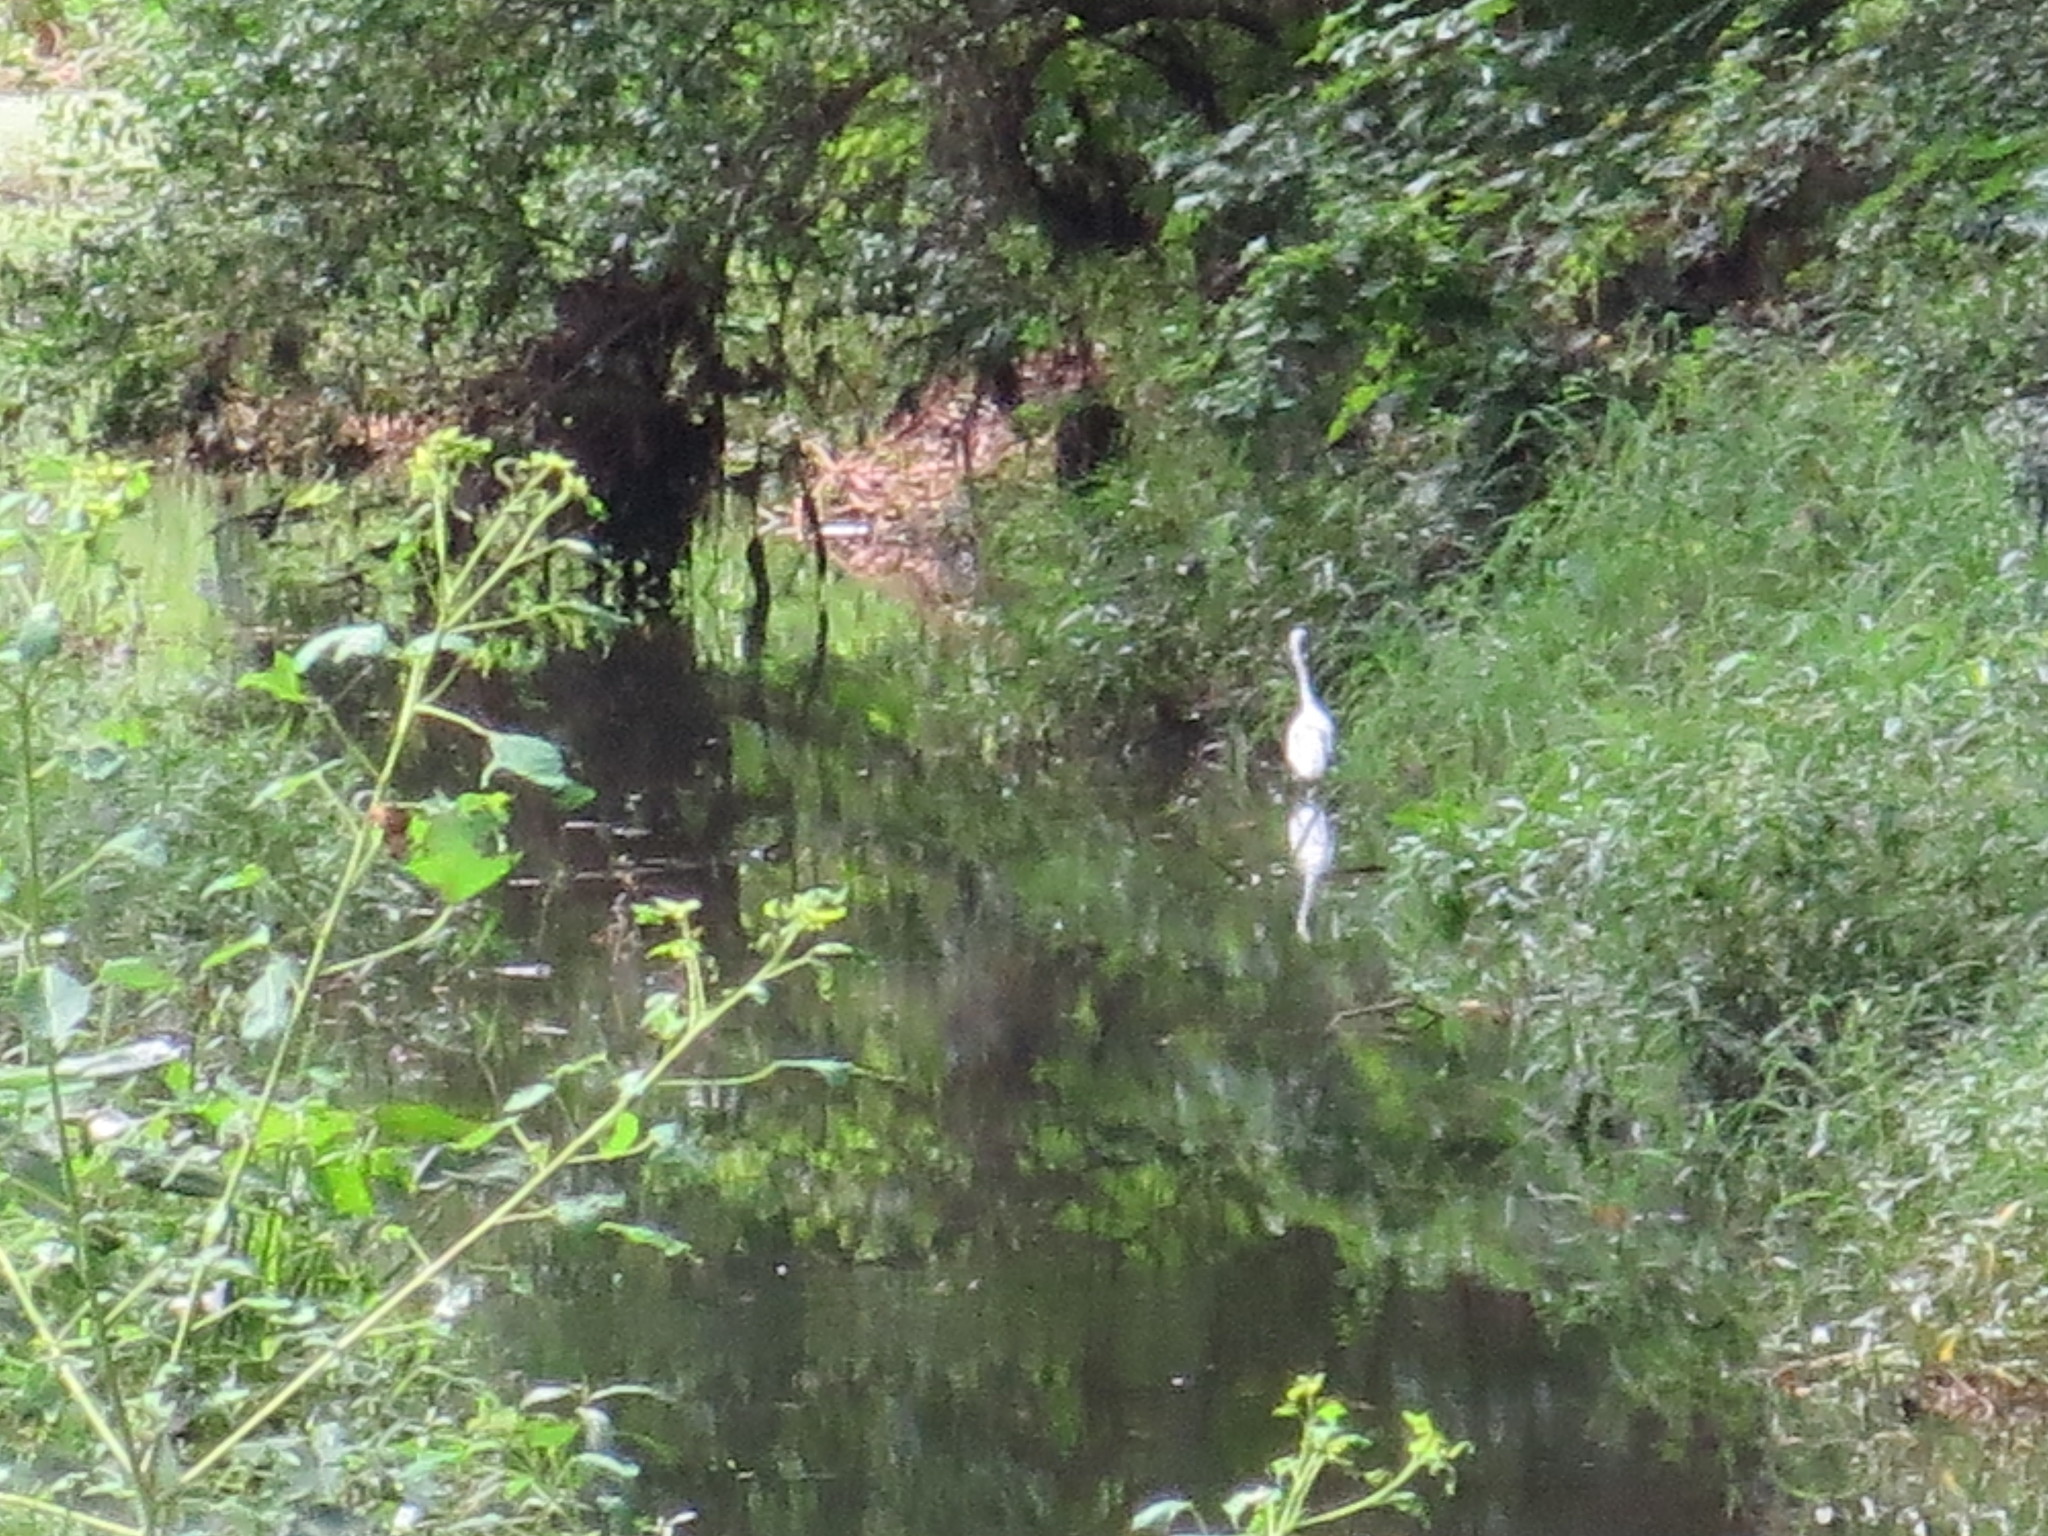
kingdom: Animalia
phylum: Chordata
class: Aves
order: Pelecaniformes
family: Ardeidae
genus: Ardea
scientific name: Ardea alba
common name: Great egret
